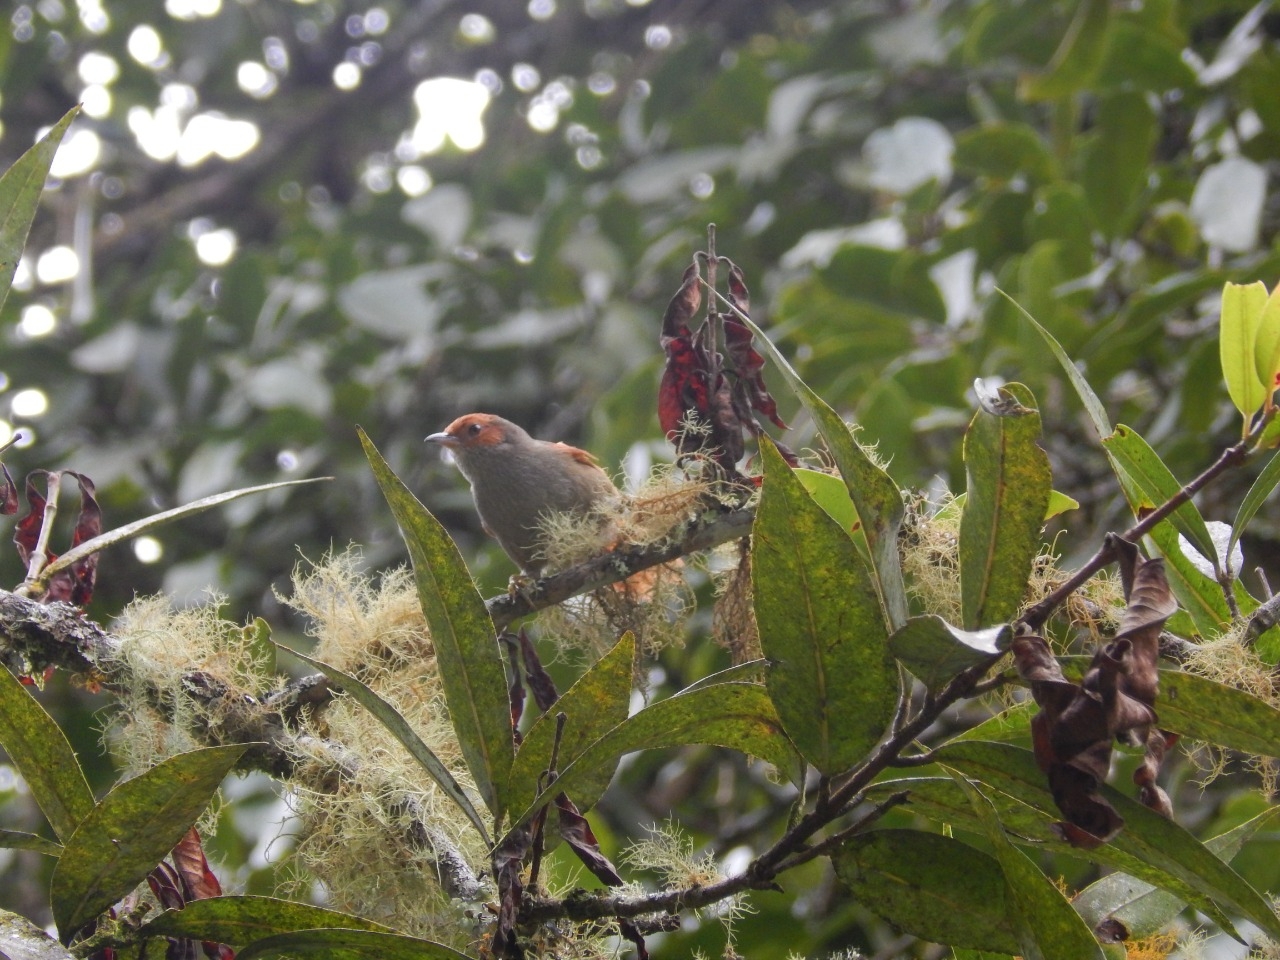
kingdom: Animalia
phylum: Chordata
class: Aves
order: Passeriformes
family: Furnariidae
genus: Cranioleuca
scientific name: Cranioleuca erythrops
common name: Red-faced spinetail
